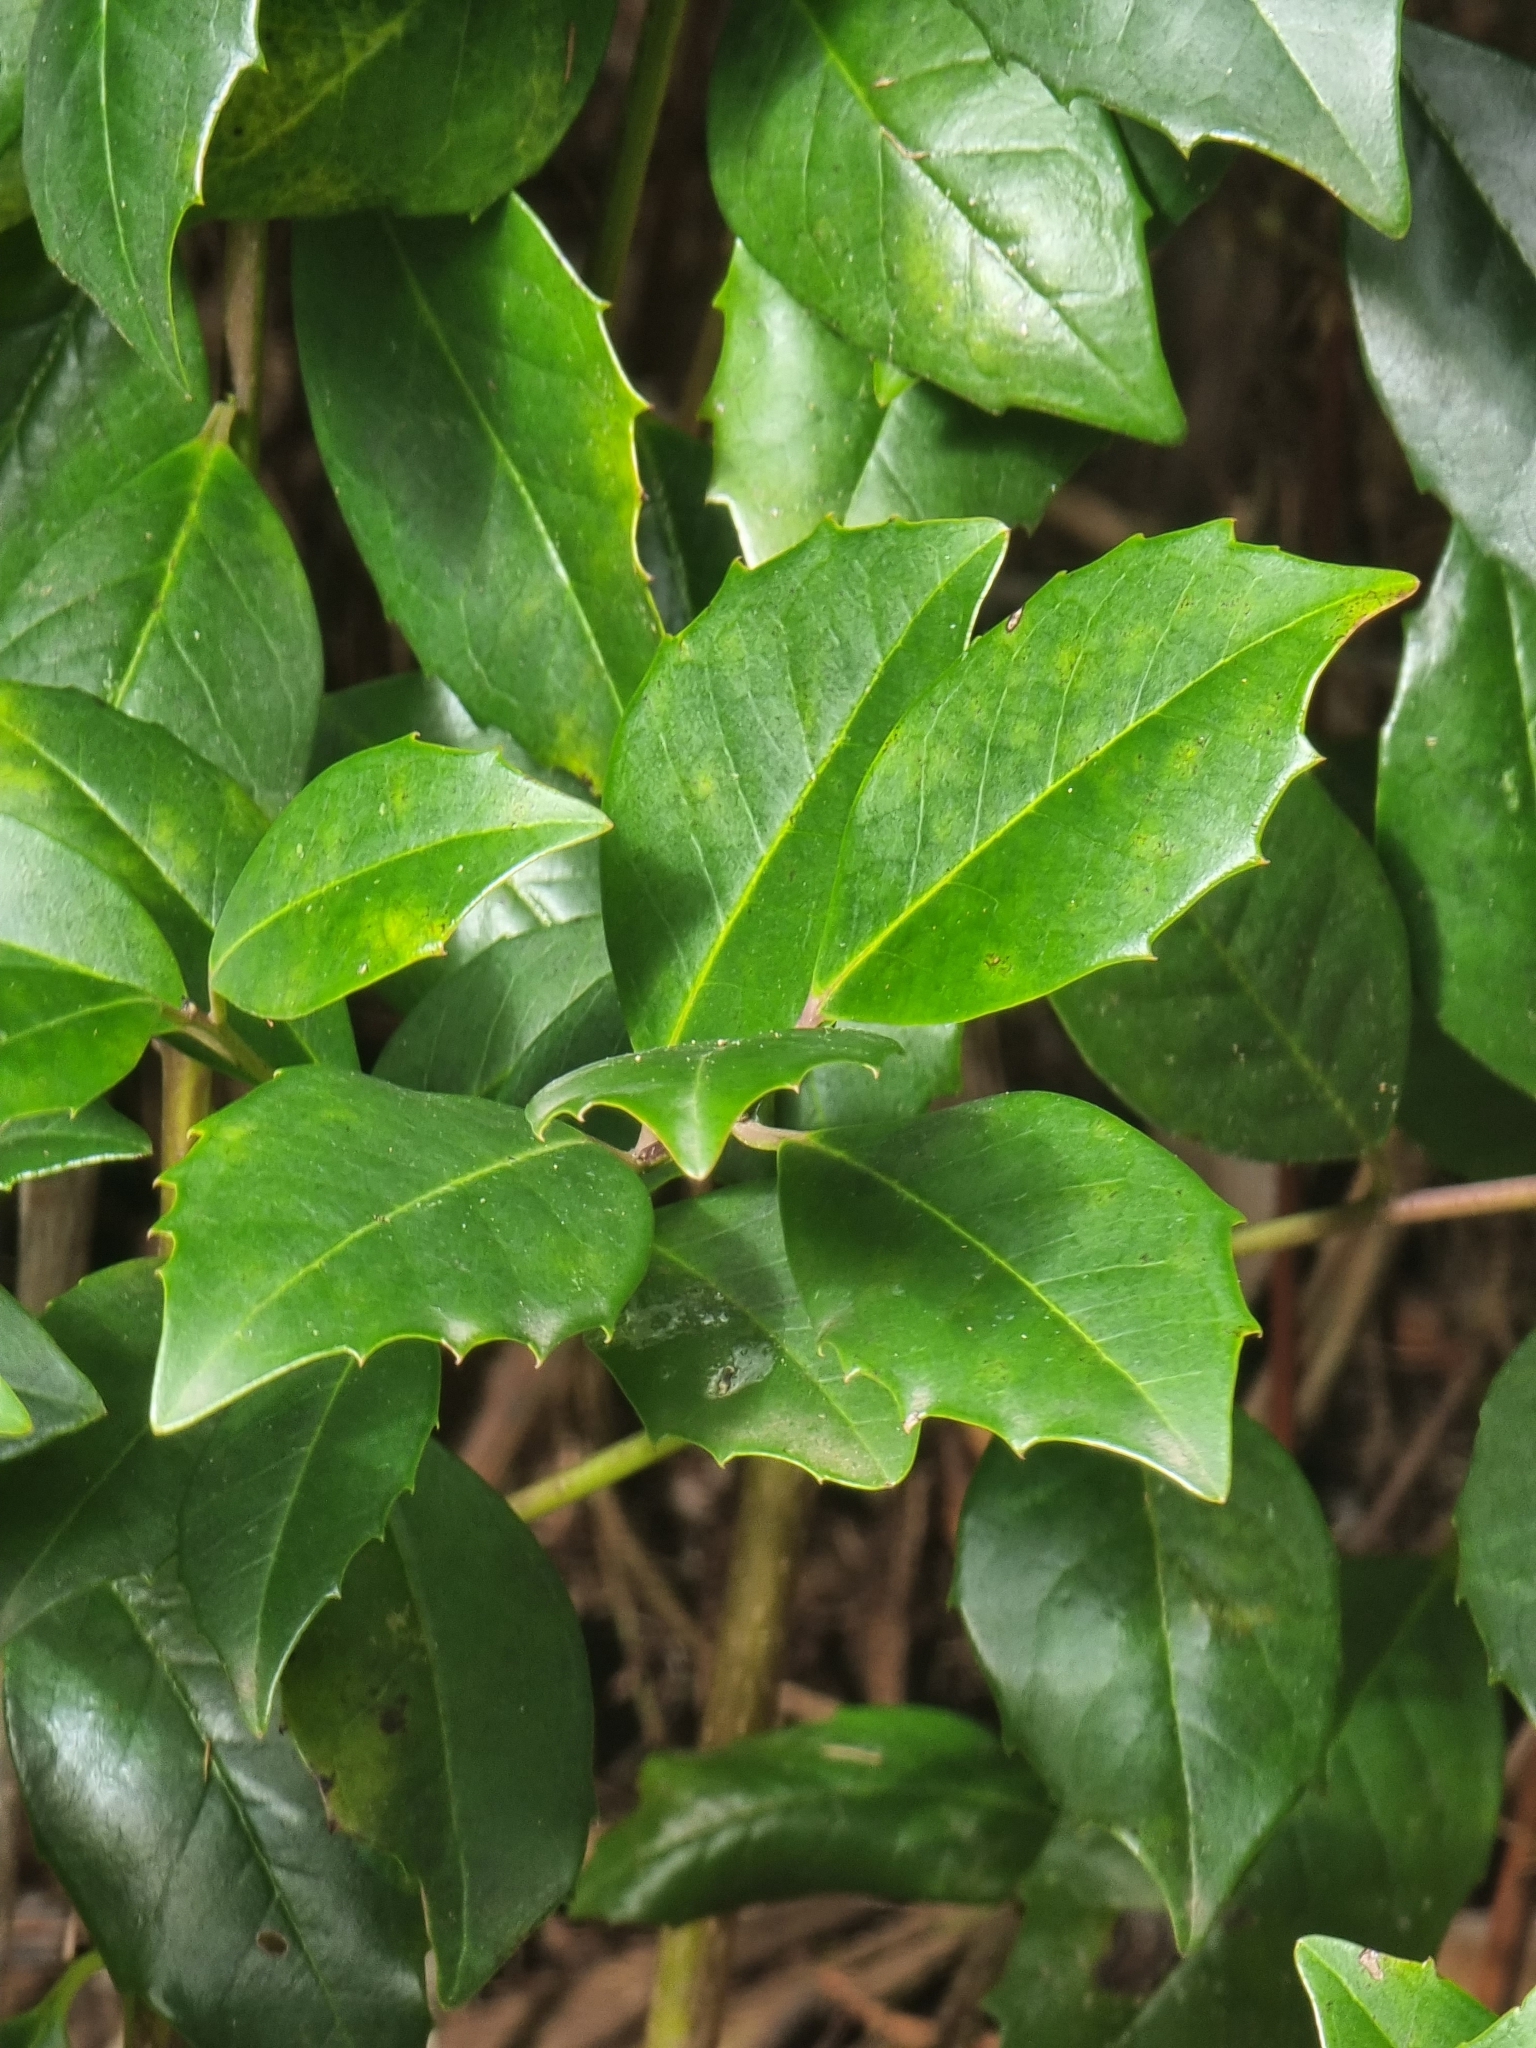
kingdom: Plantae
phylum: Tracheophyta
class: Magnoliopsida
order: Aquifoliales
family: Aquifoliaceae
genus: Ilex
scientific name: Ilex canariensis
